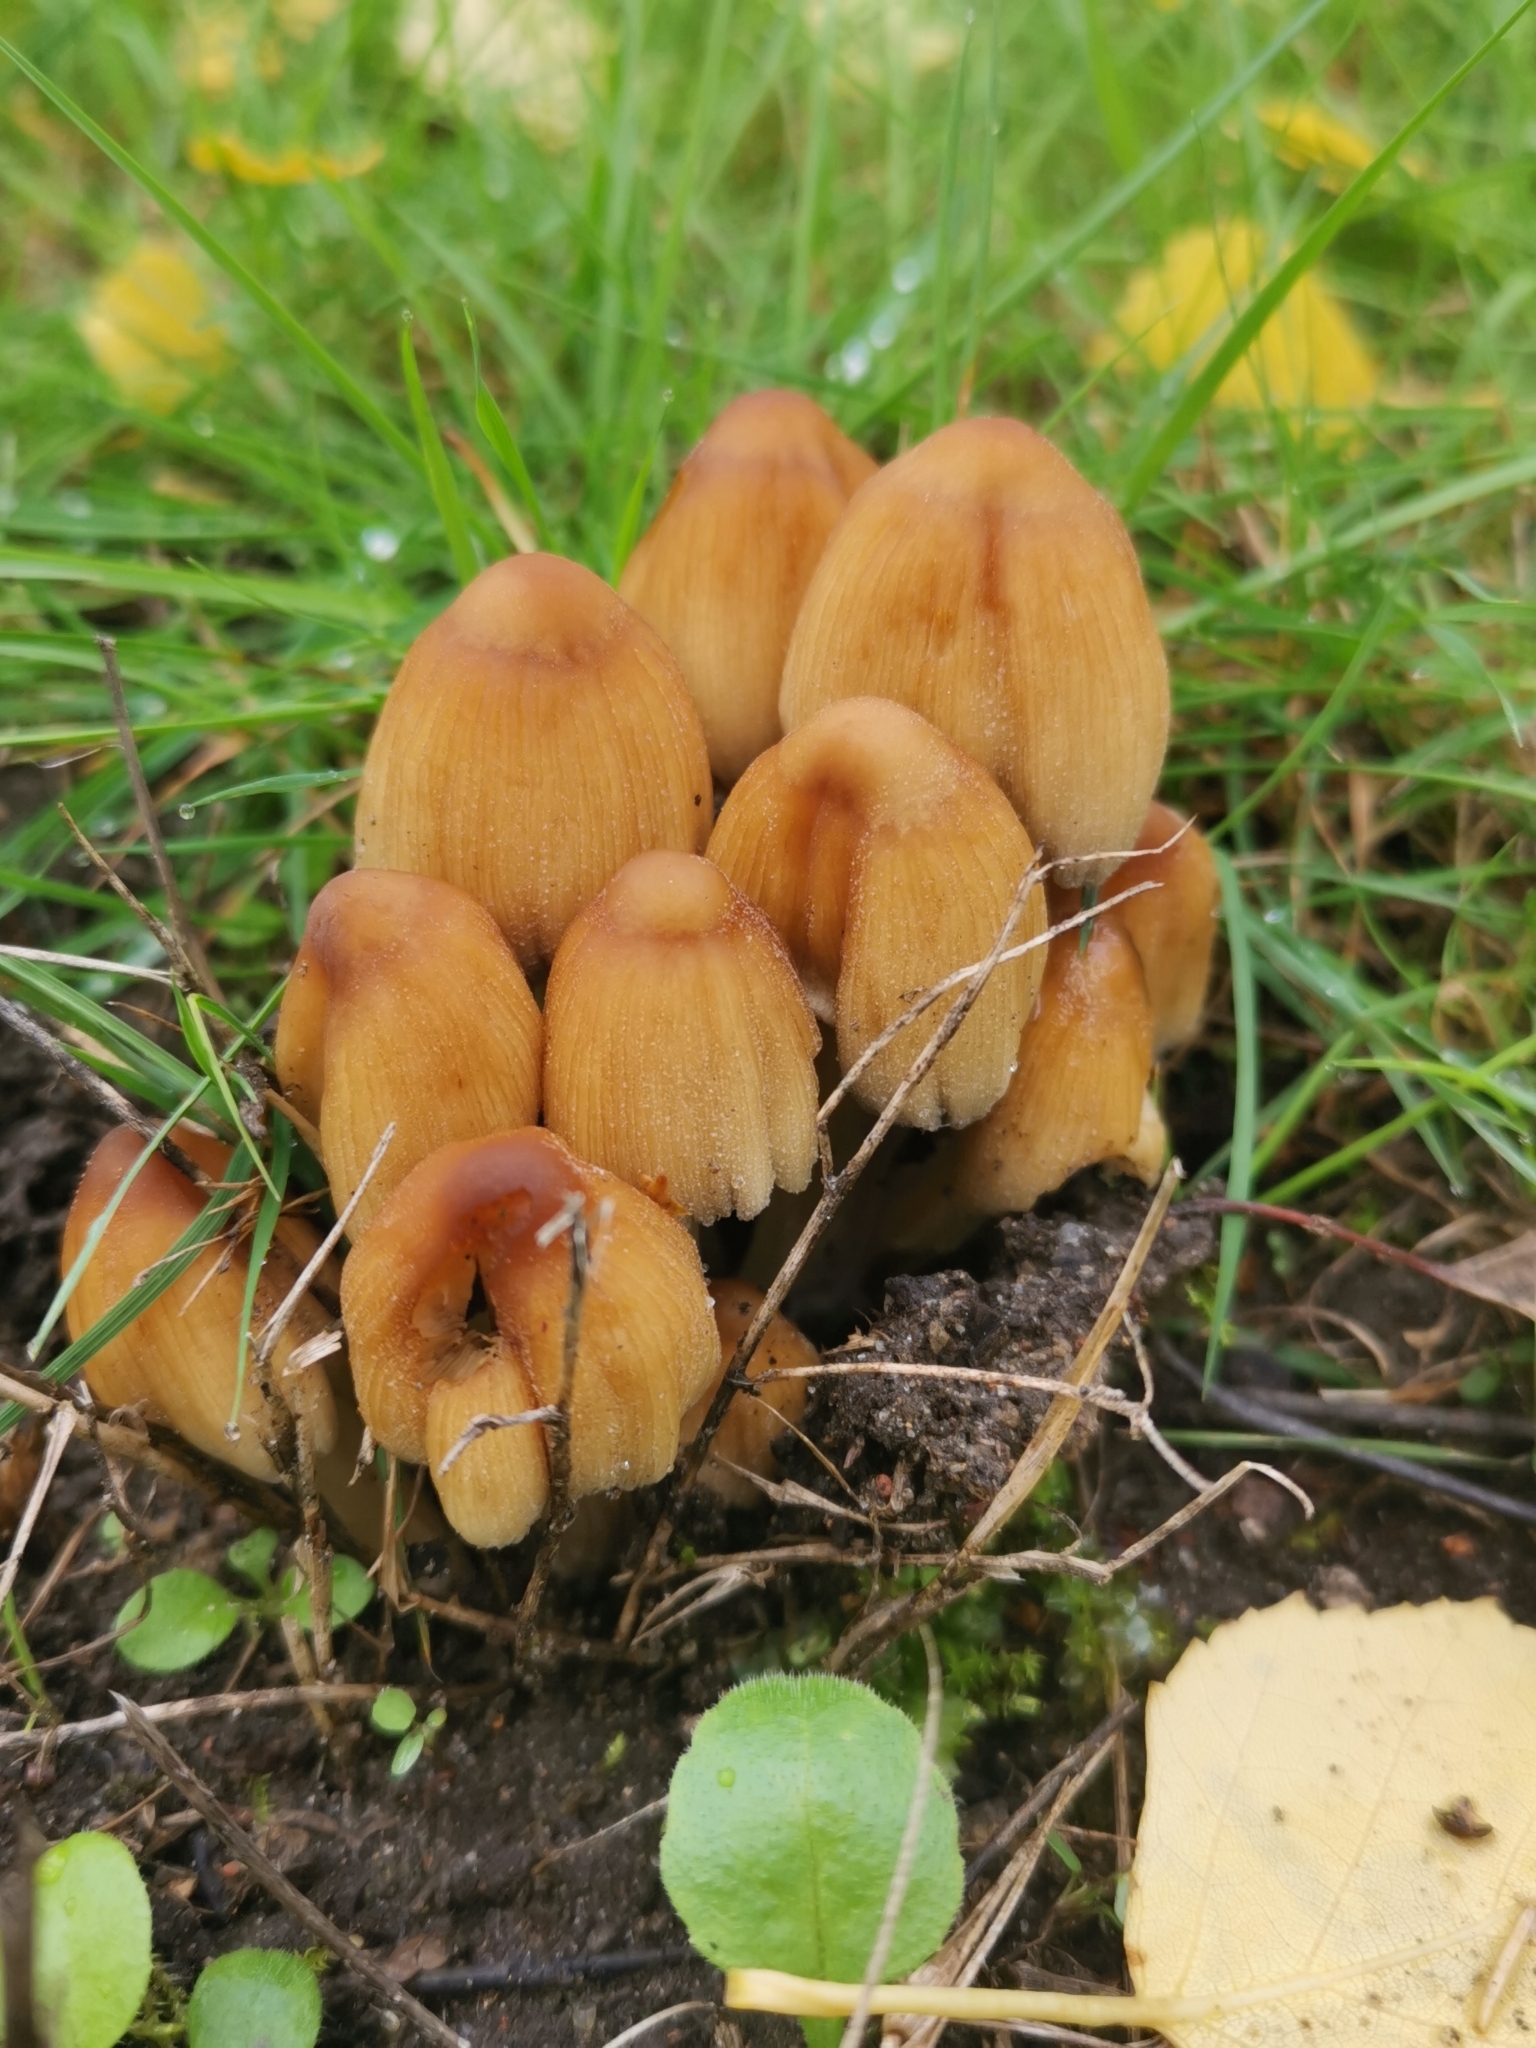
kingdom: Fungi
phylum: Basidiomycota
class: Agaricomycetes
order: Agaricales
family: Psathyrellaceae
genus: Coprinellus
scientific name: Coprinellus micaceus
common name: Glistening ink-cap
